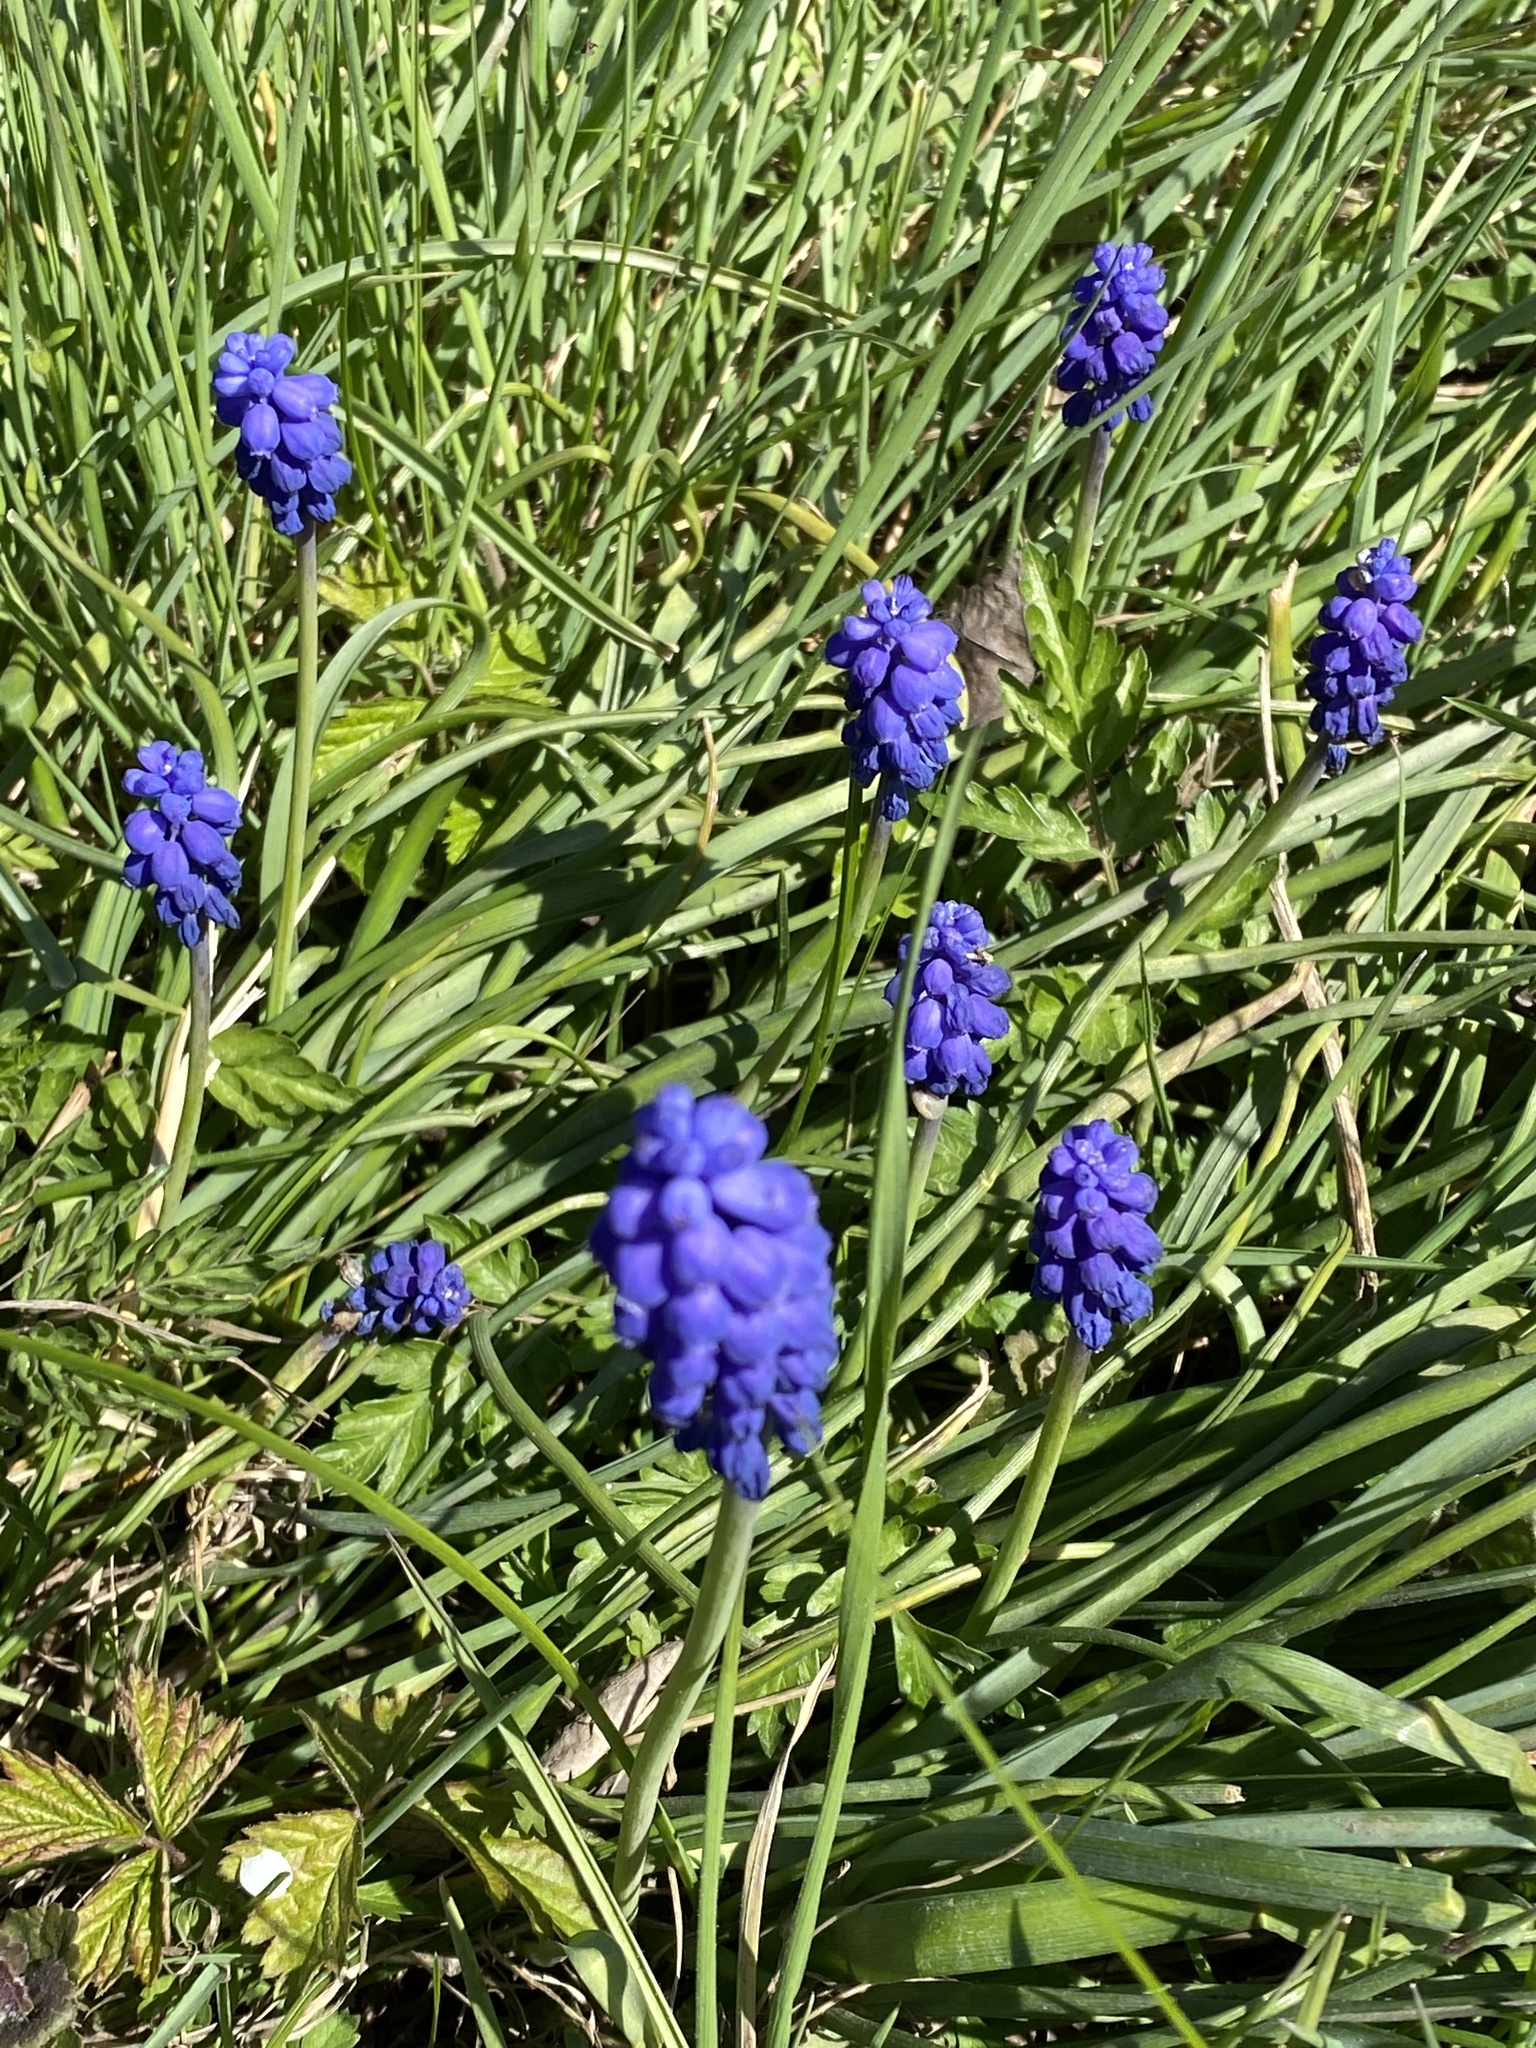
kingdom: Plantae
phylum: Tracheophyta
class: Liliopsida
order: Asparagales
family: Asparagaceae
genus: Muscari
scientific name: Muscari neglectum
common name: Grape-hyacinth
